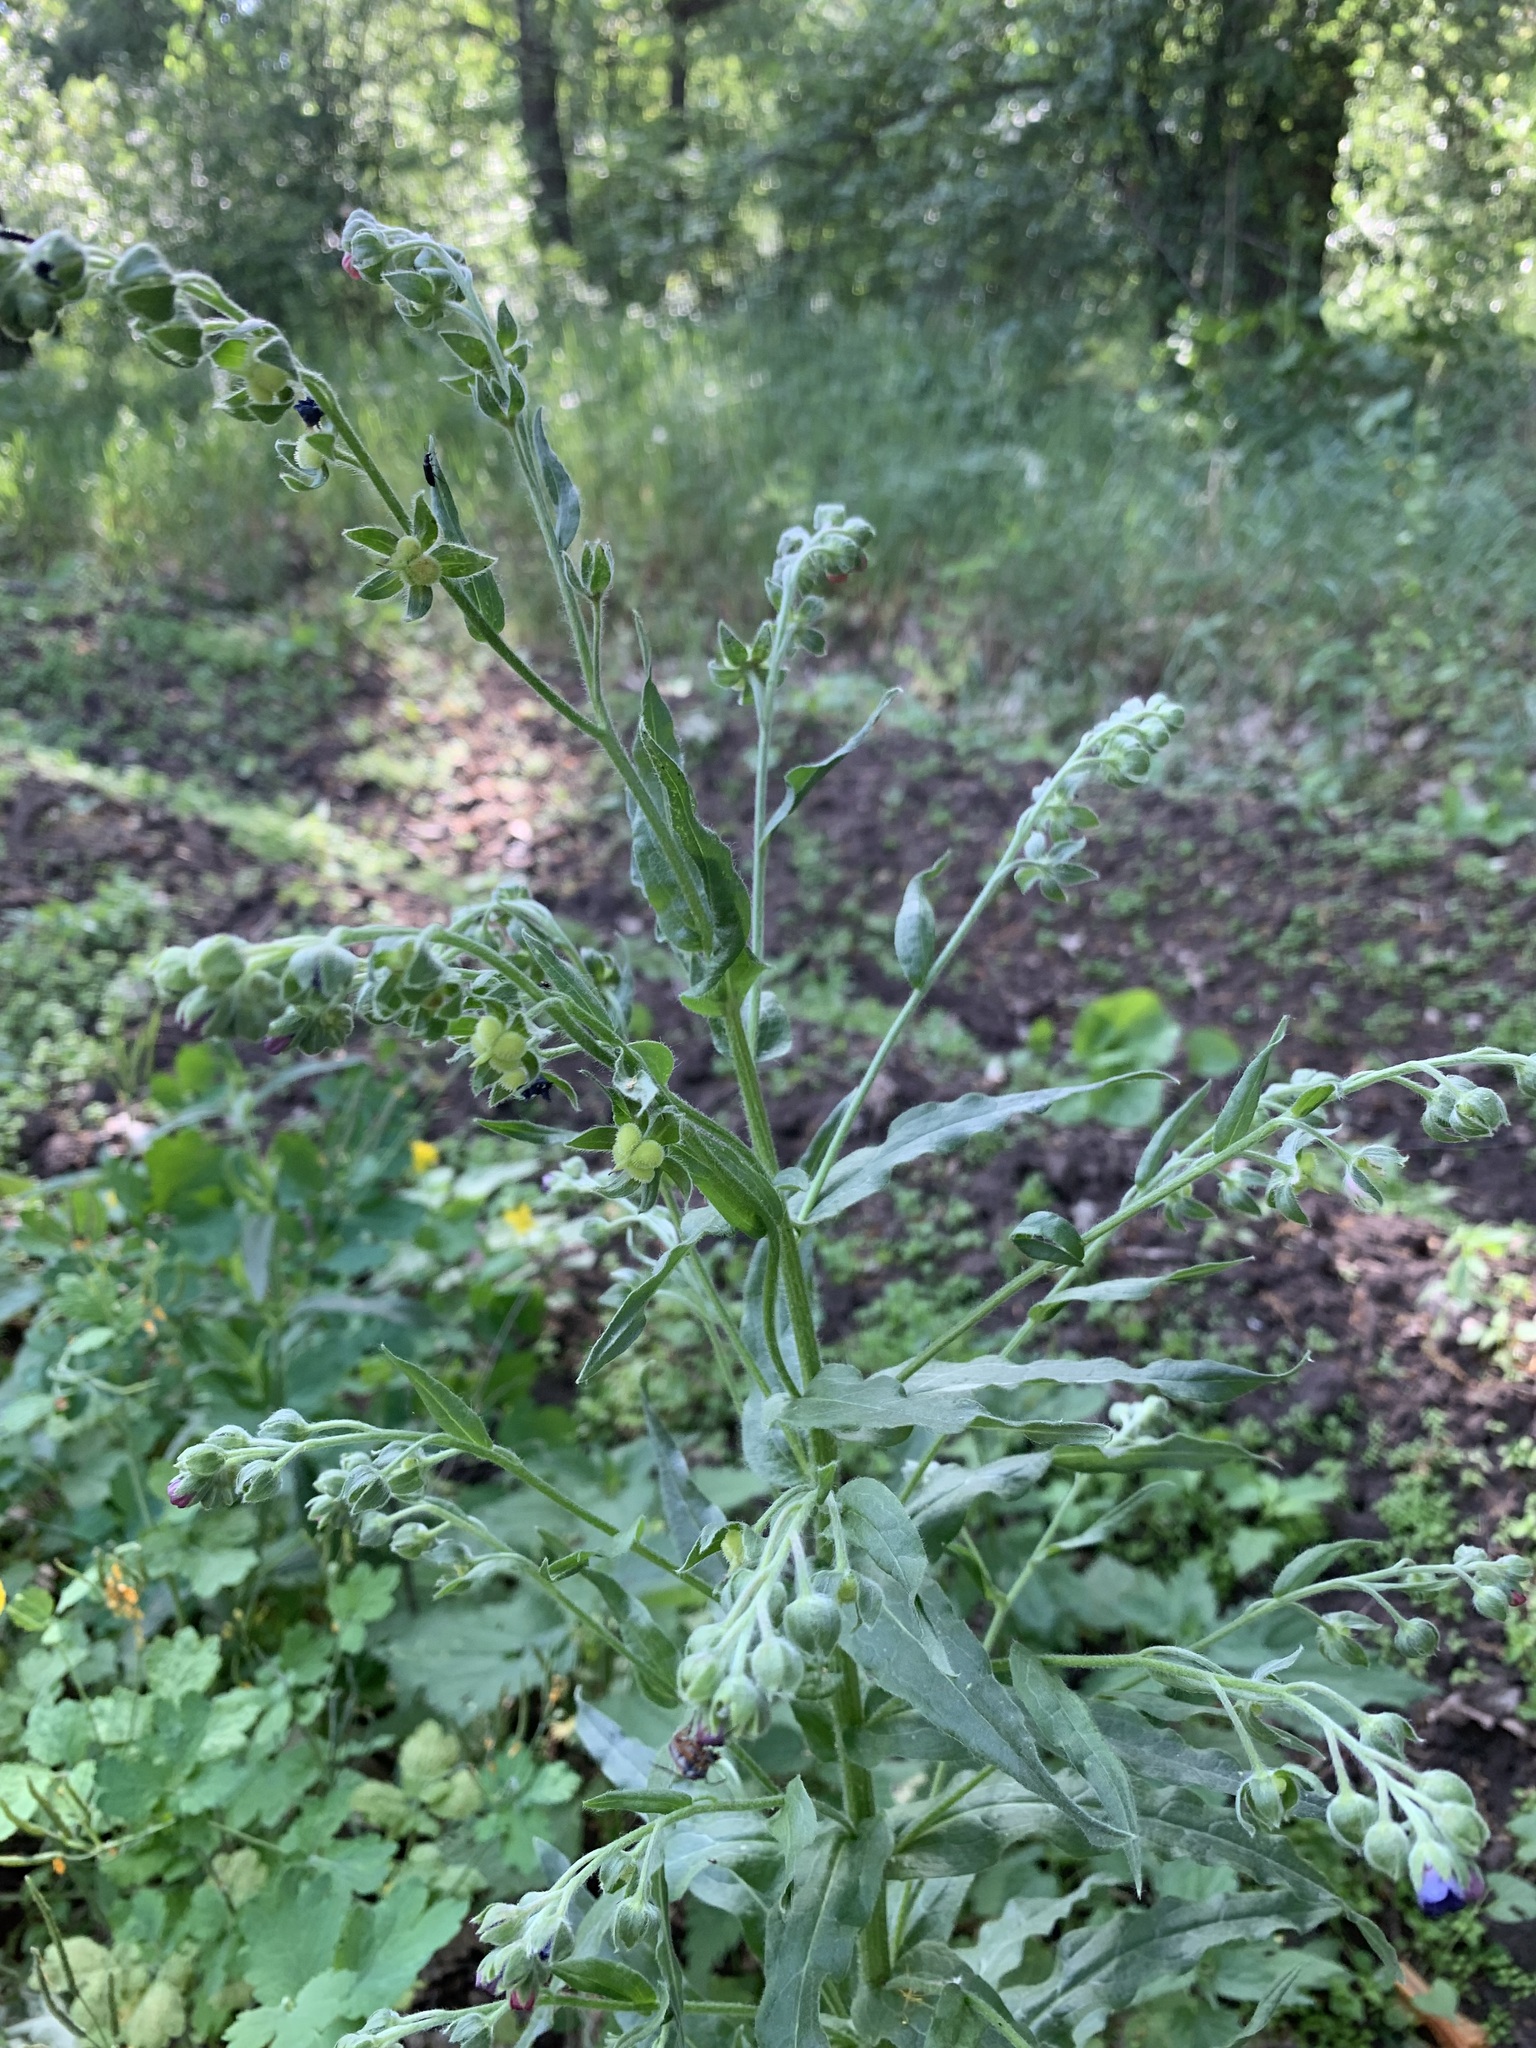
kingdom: Plantae
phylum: Tracheophyta
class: Magnoliopsida
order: Boraginales
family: Boraginaceae
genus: Cynoglossum
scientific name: Cynoglossum officinale
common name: Hound's-tongue
